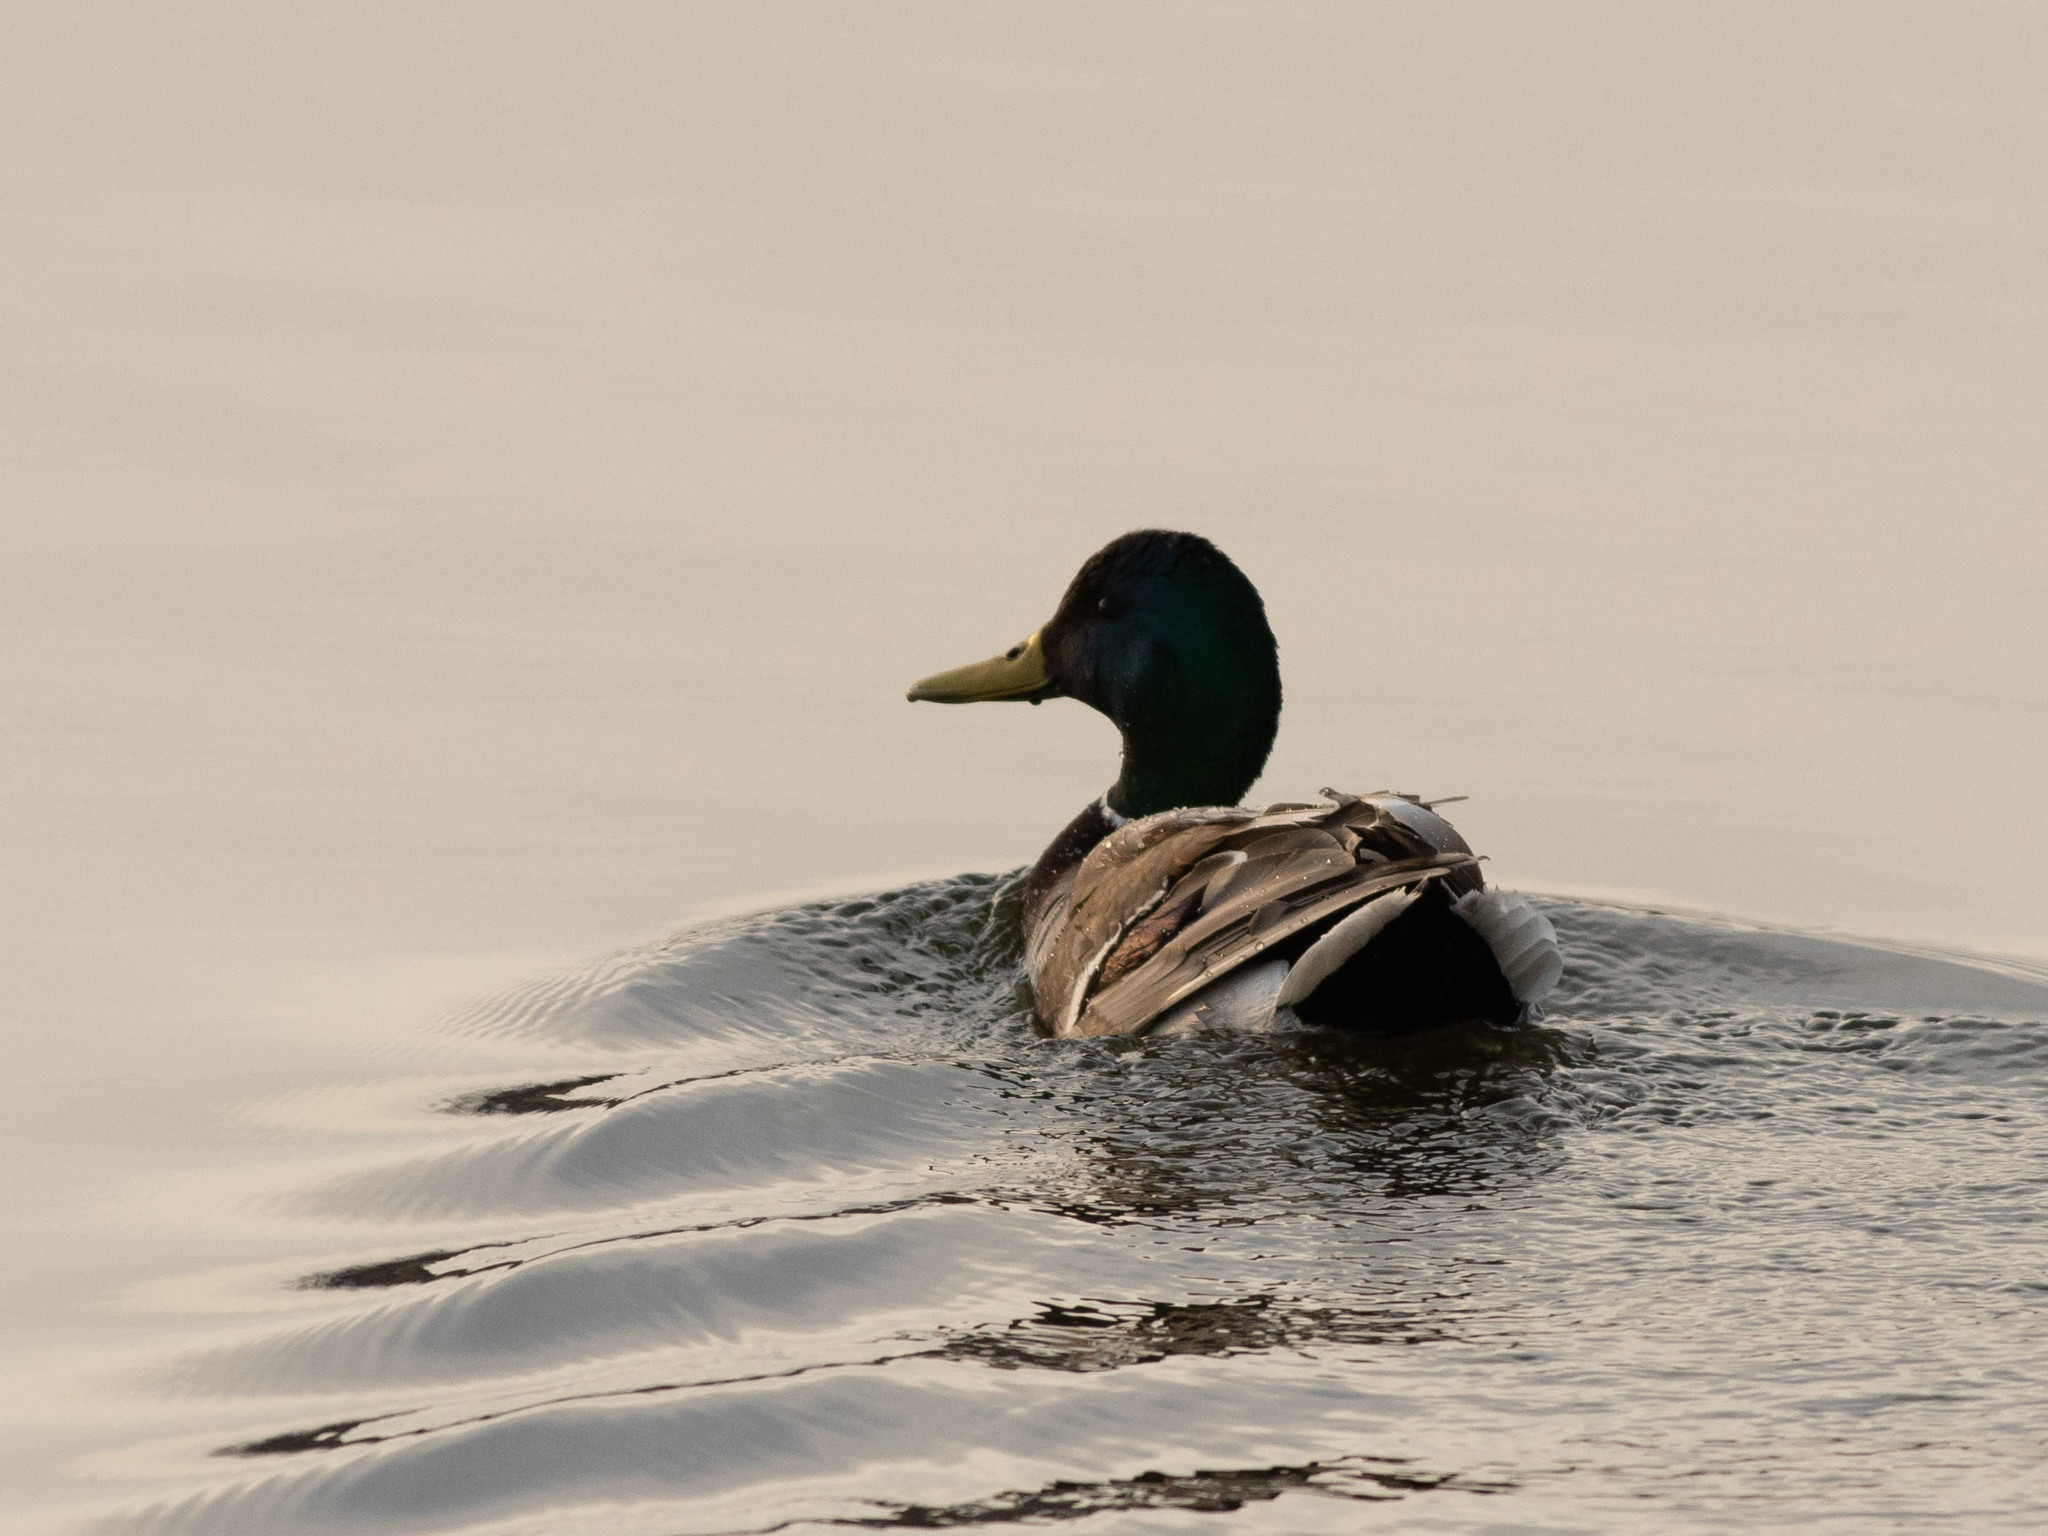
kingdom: Animalia
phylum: Chordata
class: Aves
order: Anseriformes
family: Anatidae
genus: Anas
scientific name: Anas platyrhynchos
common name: Mallard
